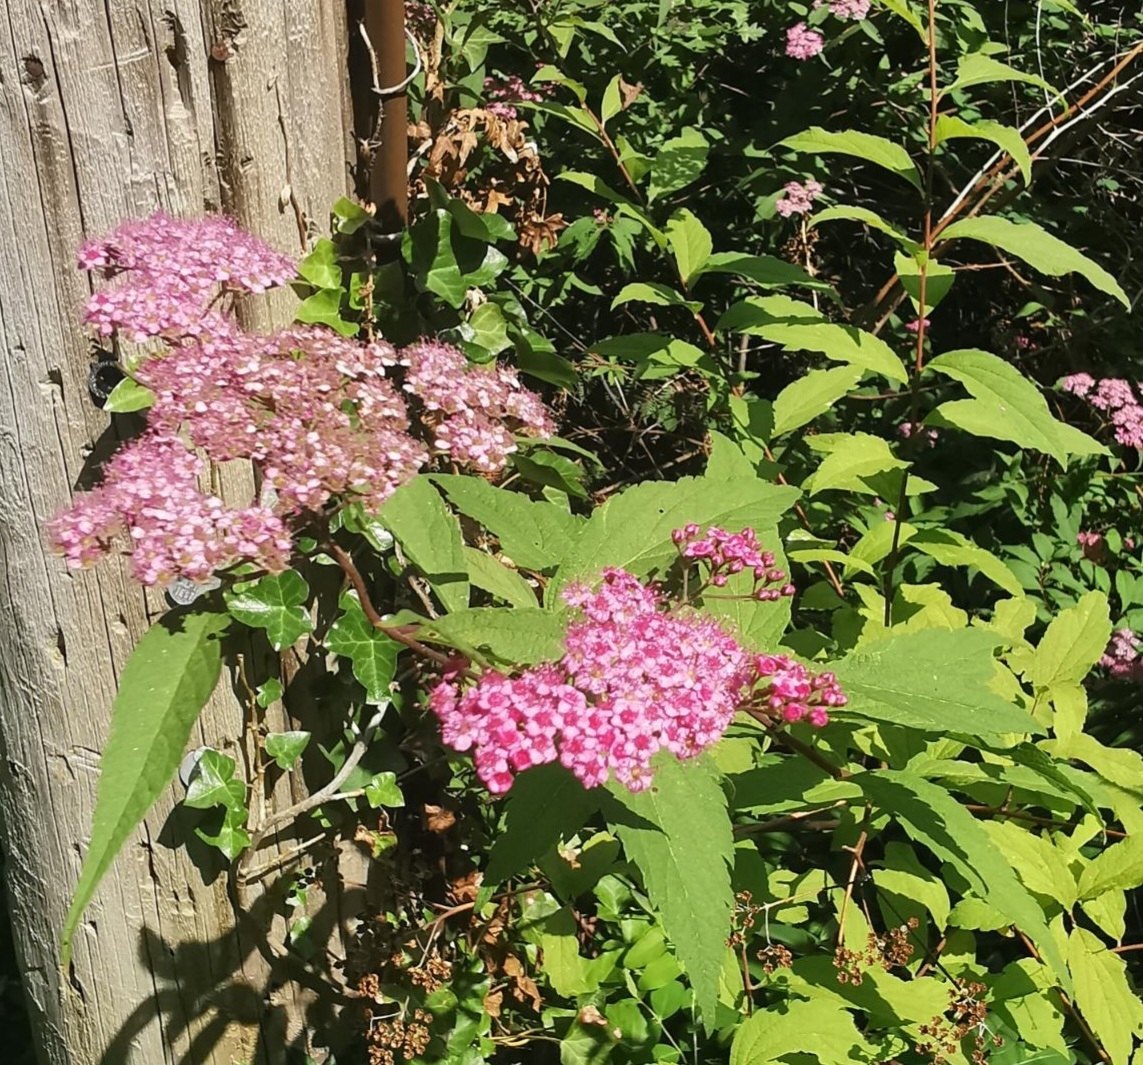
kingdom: Plantae
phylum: Tracheophyta
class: Magnoliopsida
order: Rosales
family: Rosaceae
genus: Spiraea
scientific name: Spiraea japonica
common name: Japanese spiraea
